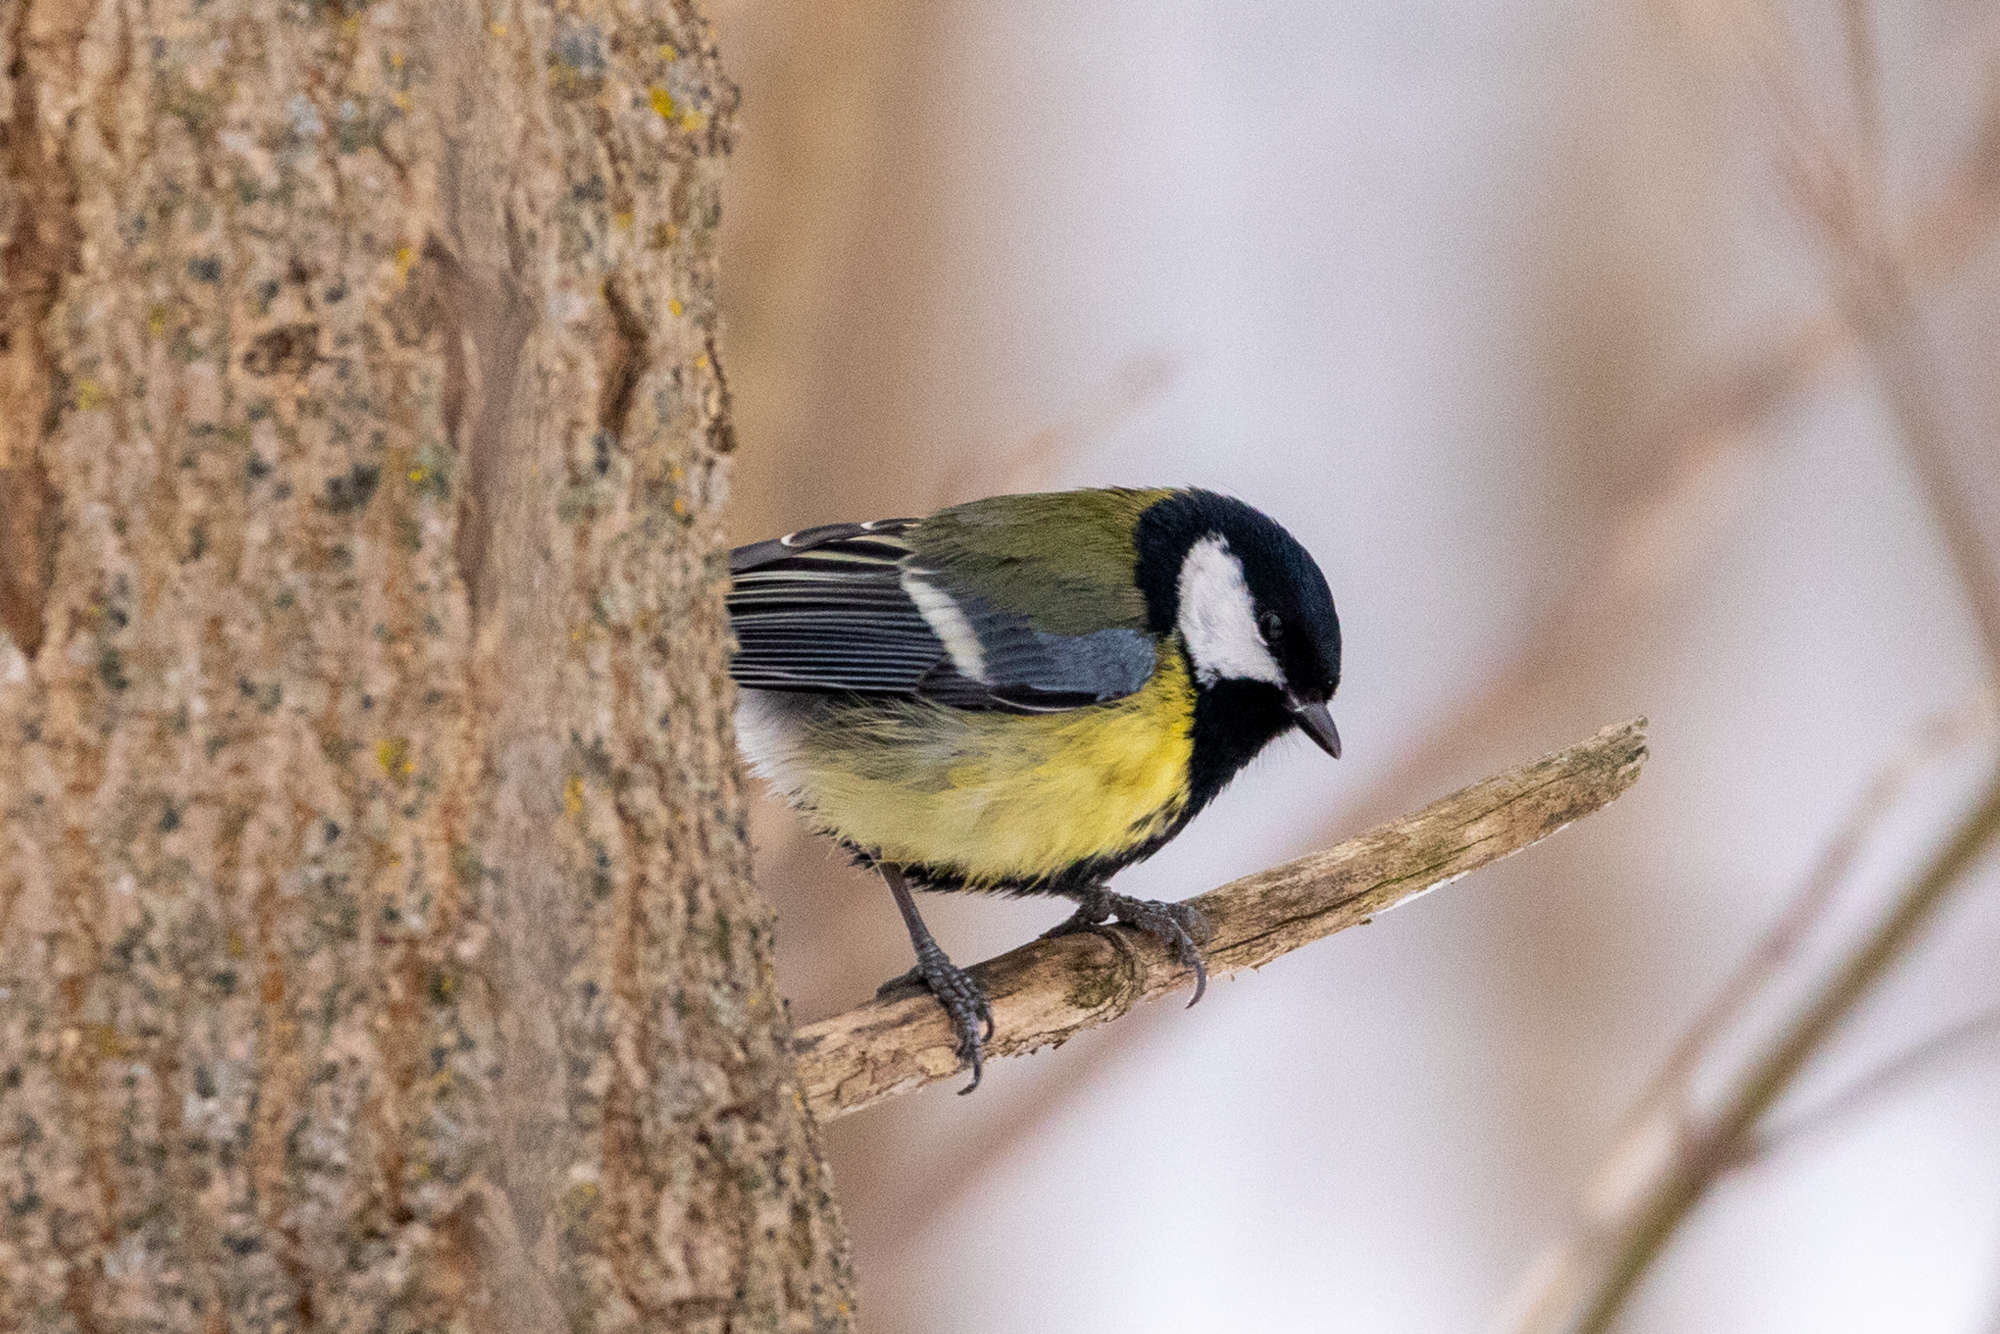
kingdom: Animalia
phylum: Chordata
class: Aves
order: Passeriformes
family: Paridae
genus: Parus
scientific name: Parus major
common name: Great tit
